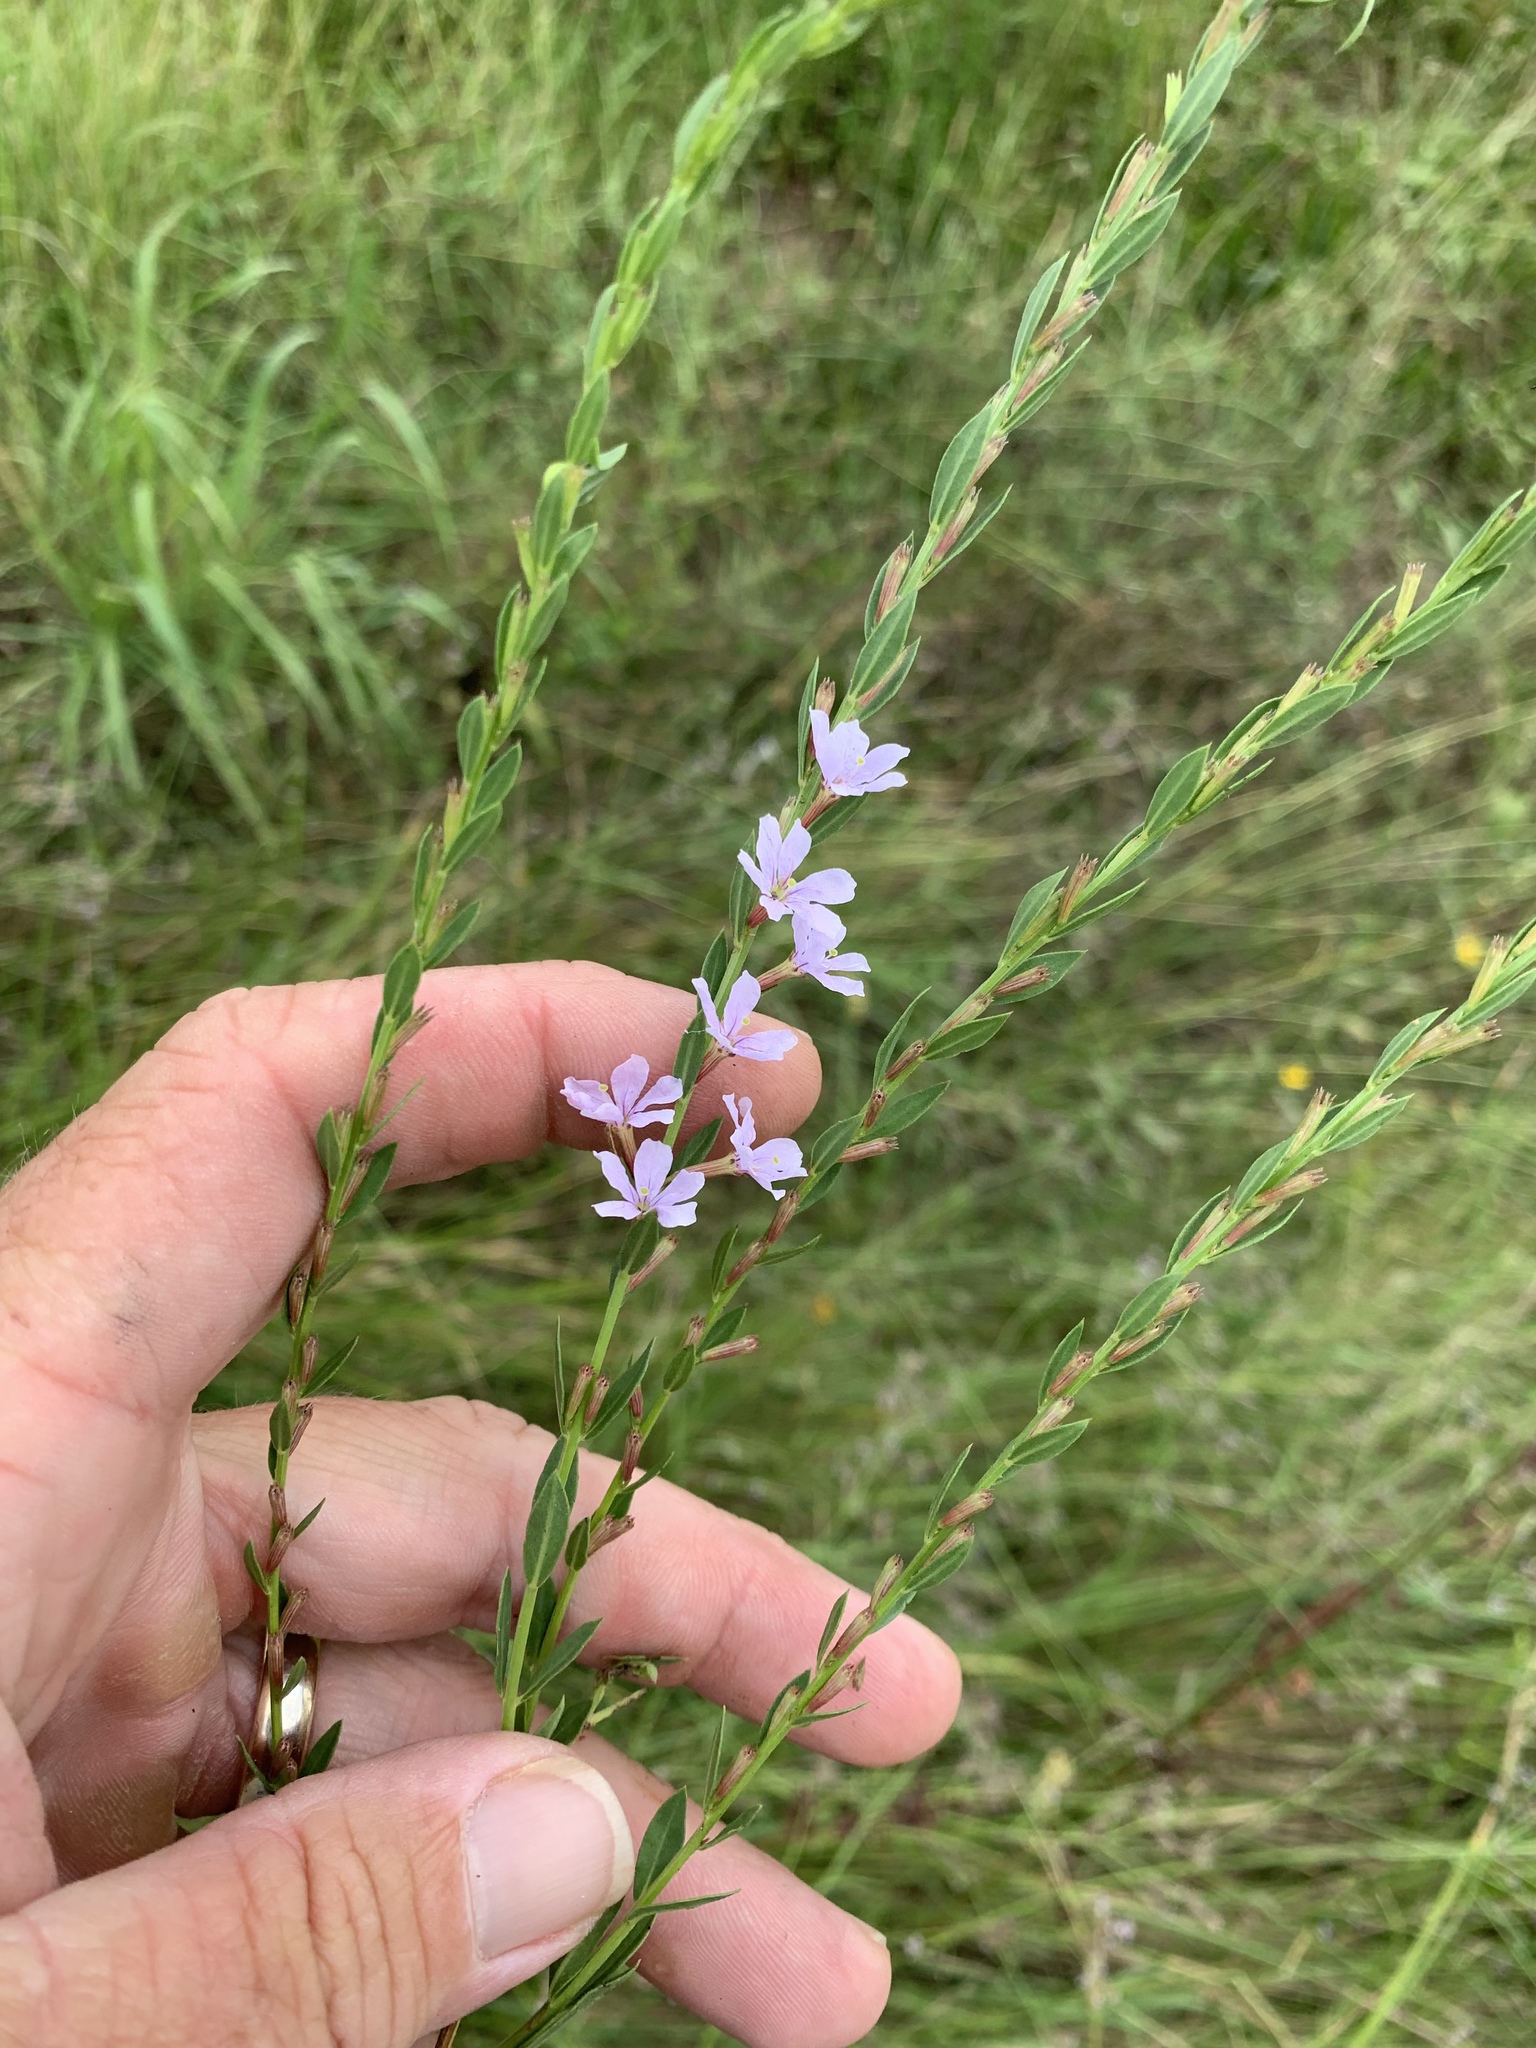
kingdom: Plantae
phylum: Tracheophyta
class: Magnoliopsida
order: Myrtales
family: Lythraceae
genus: Lythrum
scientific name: Lythrum alatum
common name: Winged loosestrife
